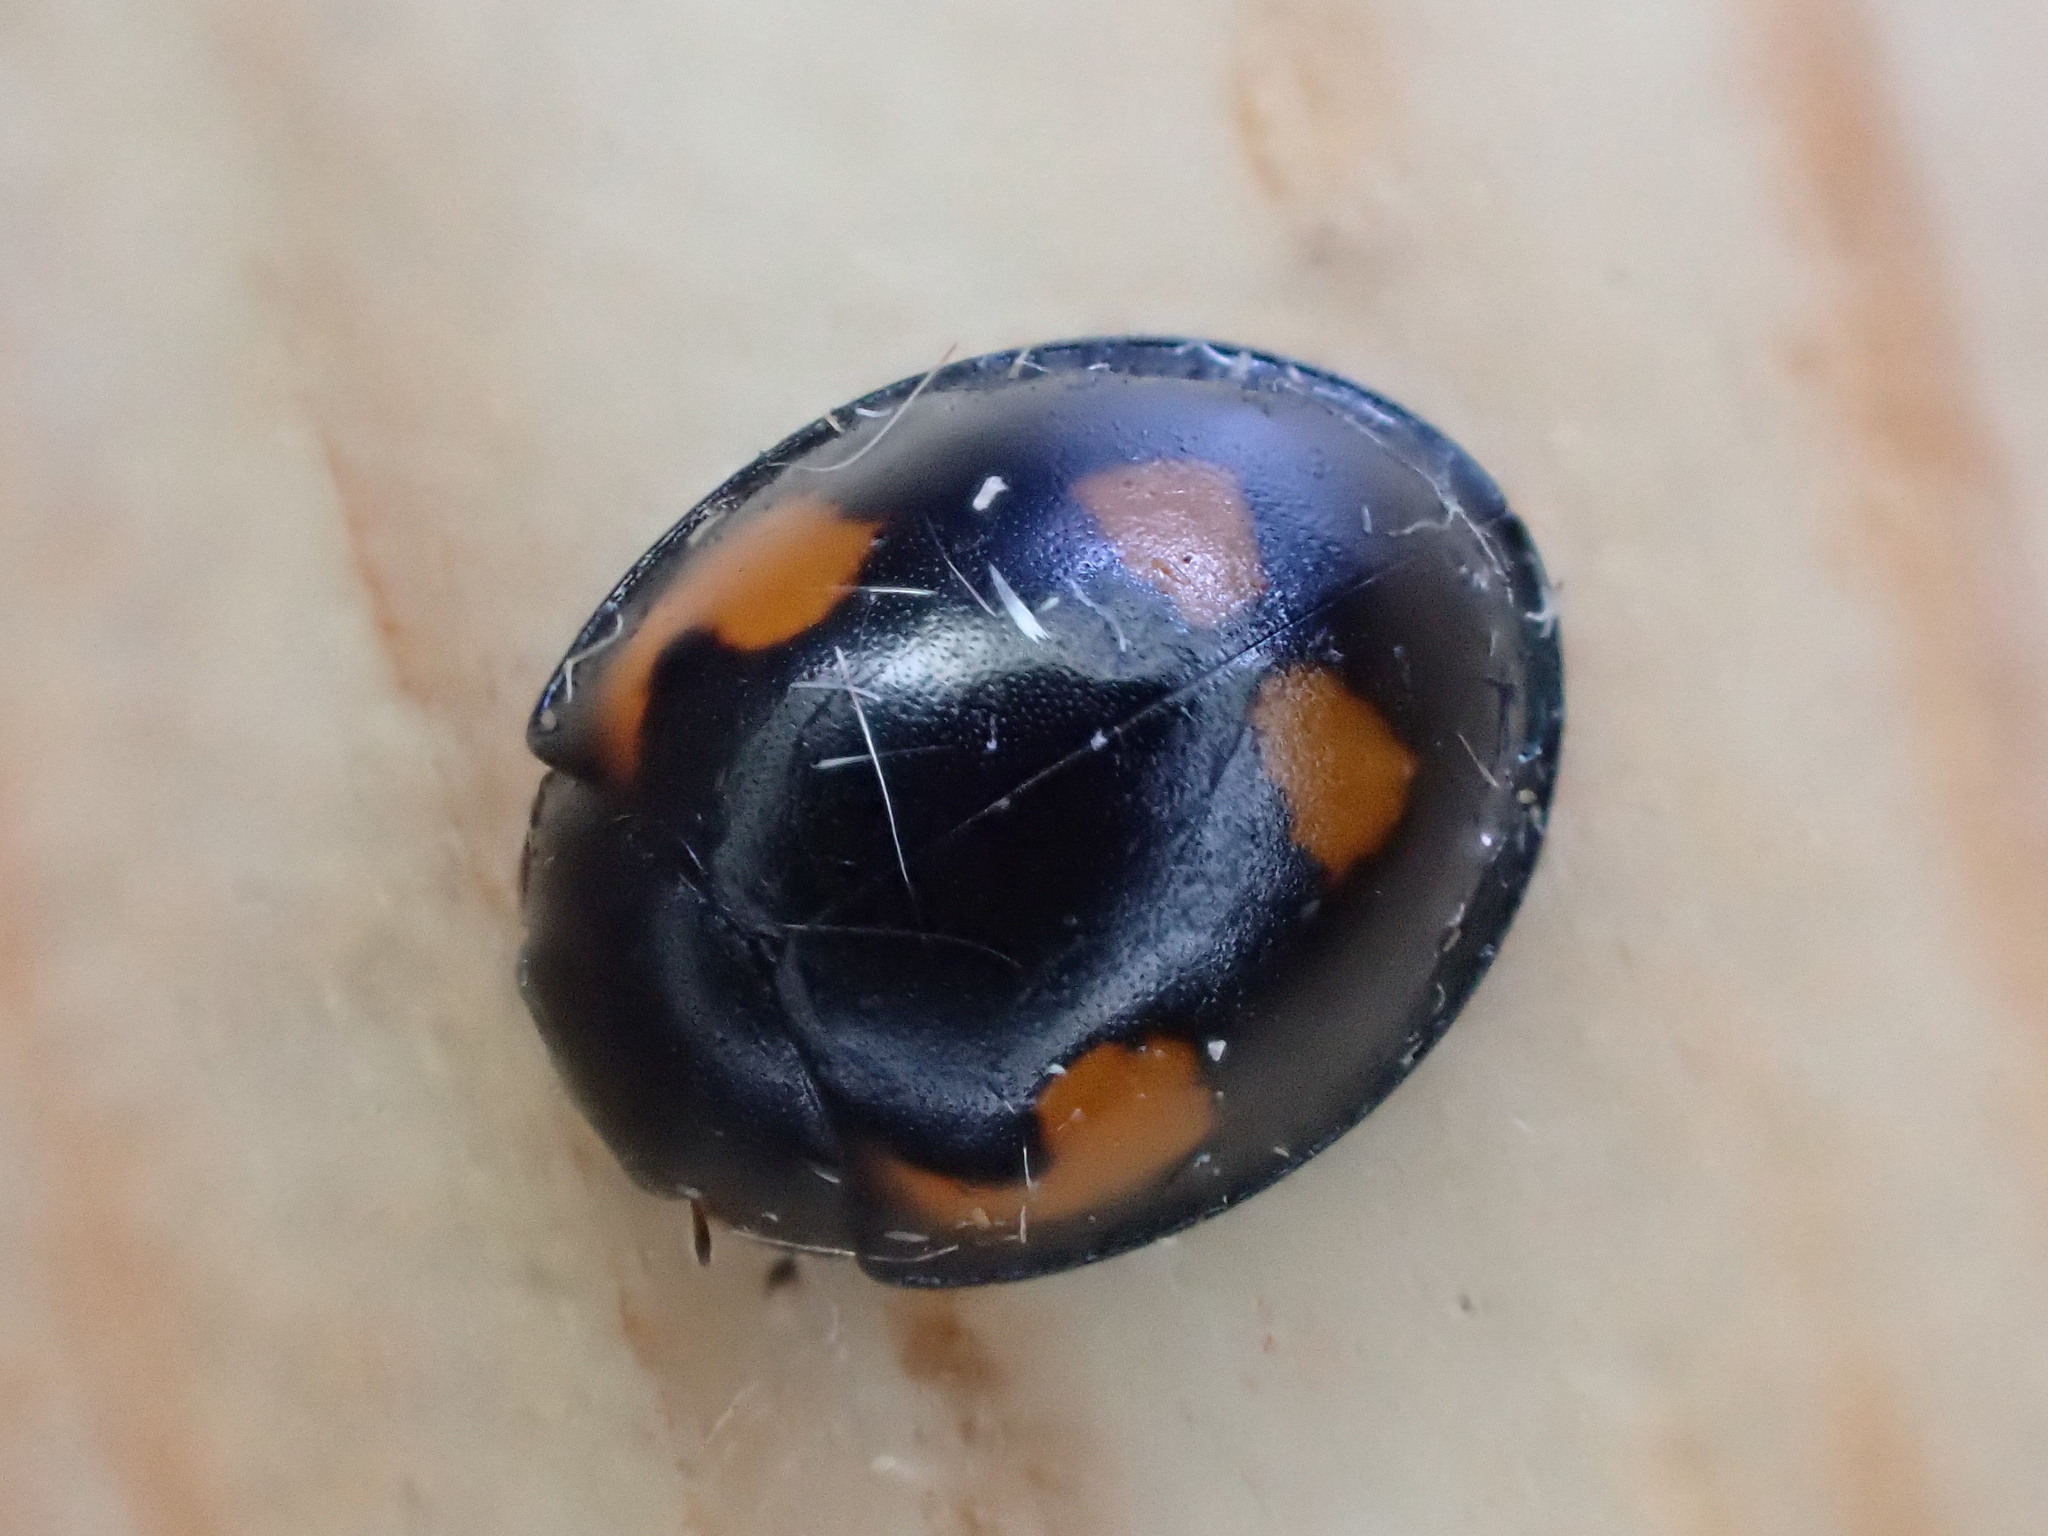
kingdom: Animalia
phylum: Arthropoda
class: Insecta
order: Coleoptera
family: Coccinellidae
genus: Brumus
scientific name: Brumus quadripustulatus
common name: Ladybird beetle
